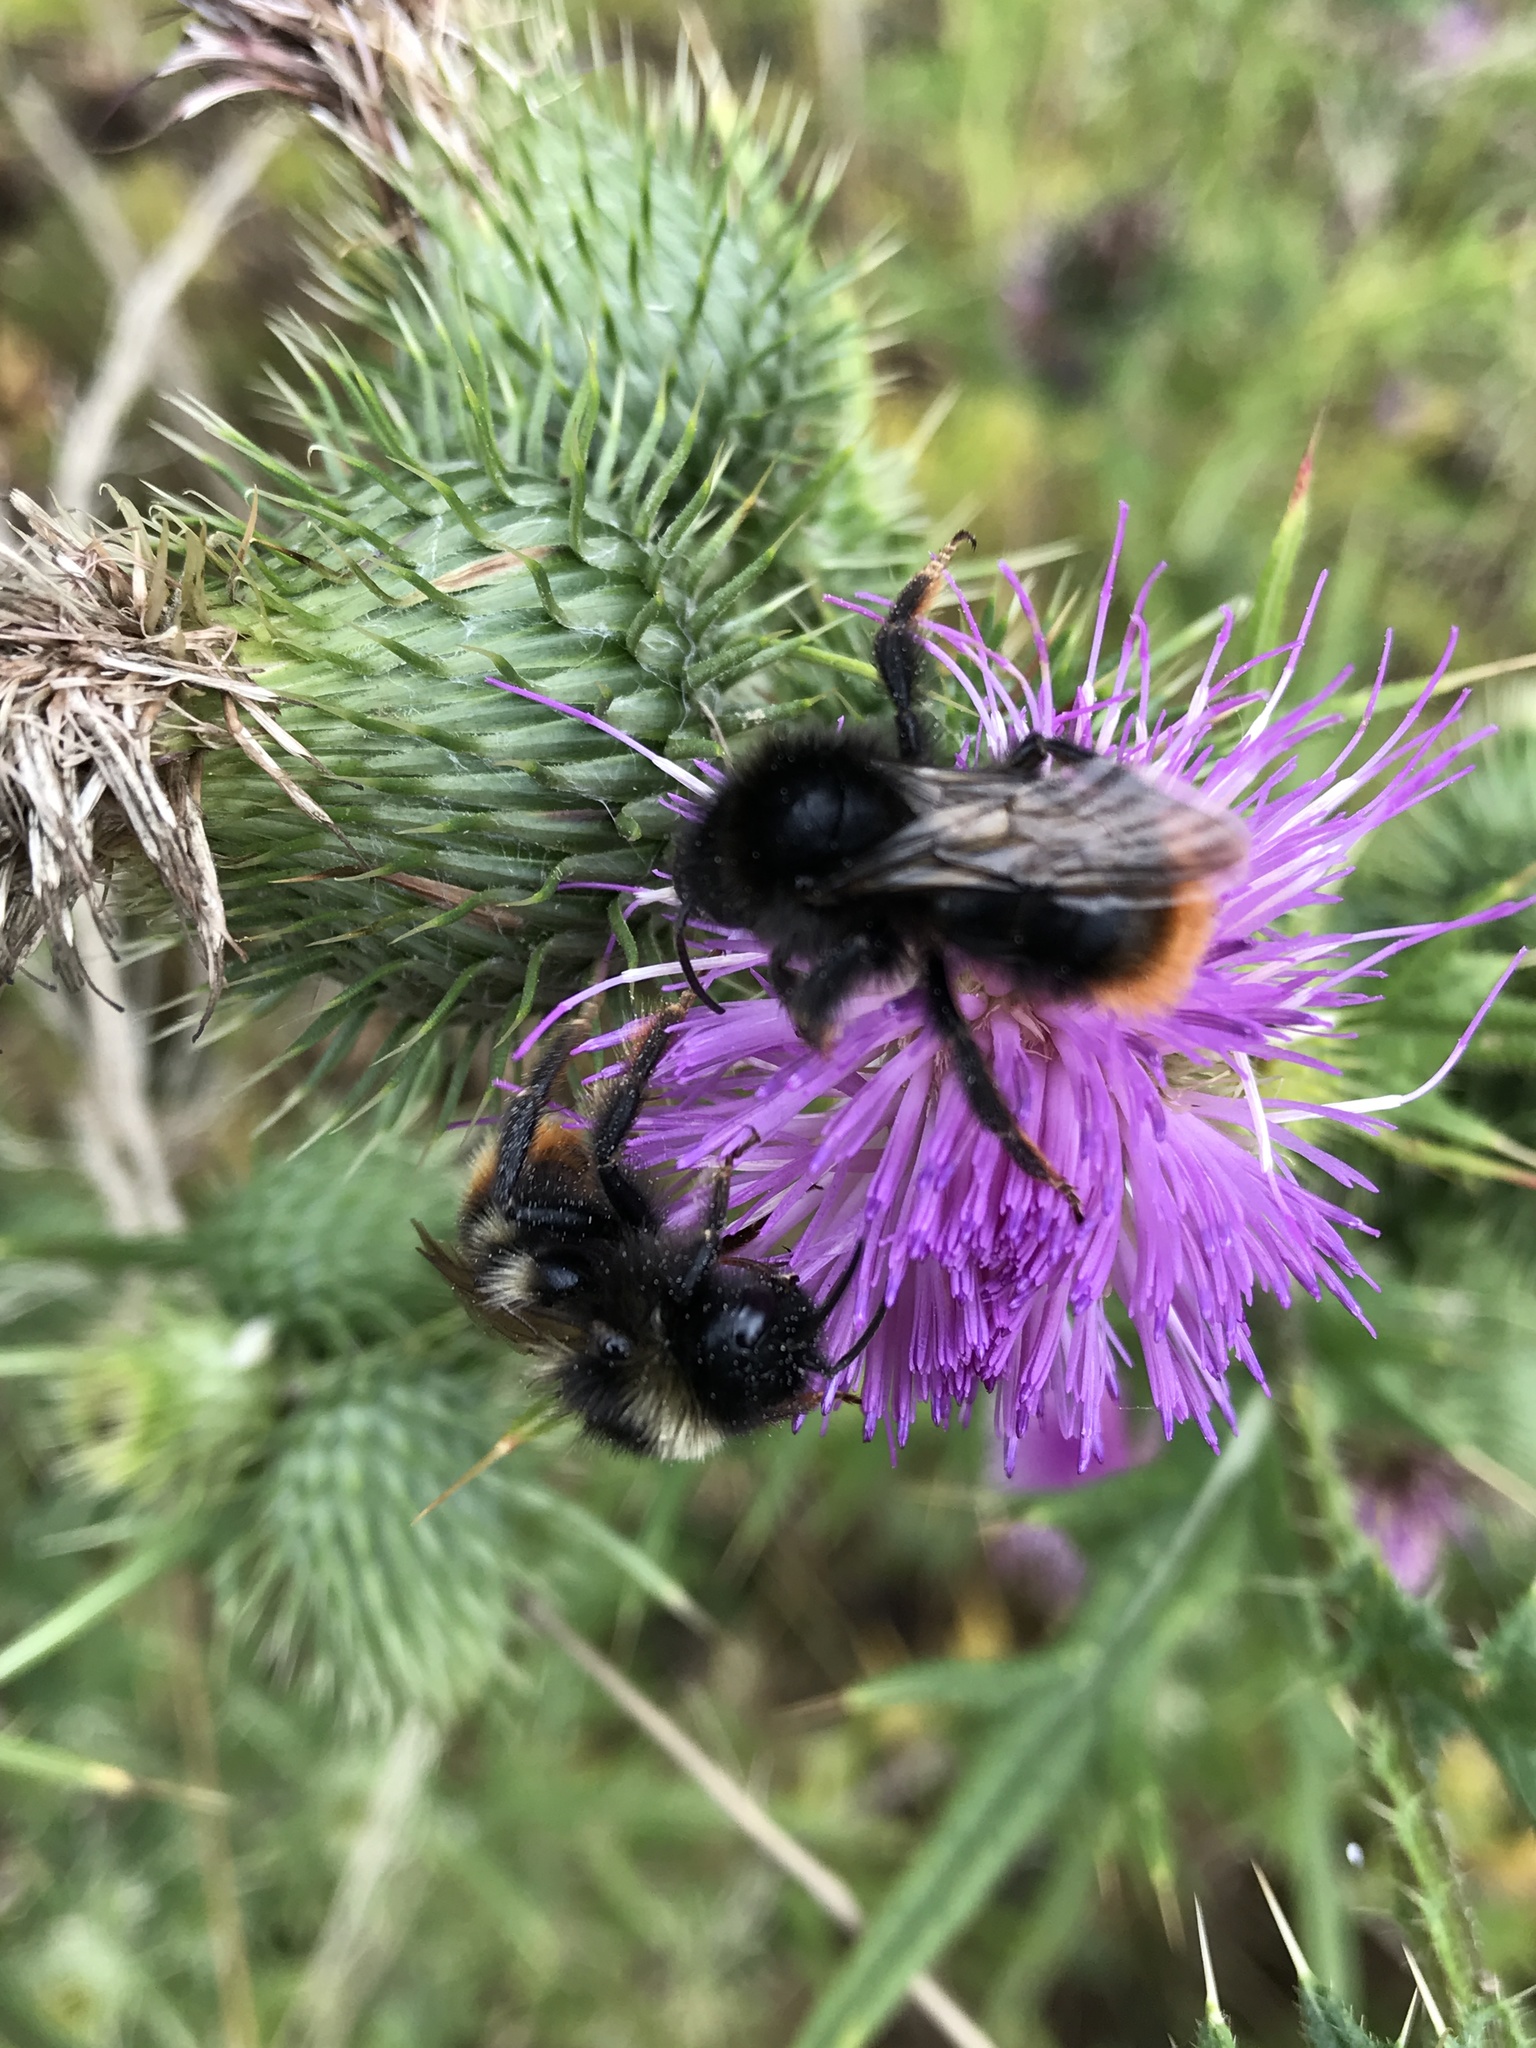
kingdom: Animalia
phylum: Arthropoda
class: Insecta
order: Hymenoptera
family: Apidae
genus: Bombus
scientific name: Bombus rupestris
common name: Hill cuckoo-bee
